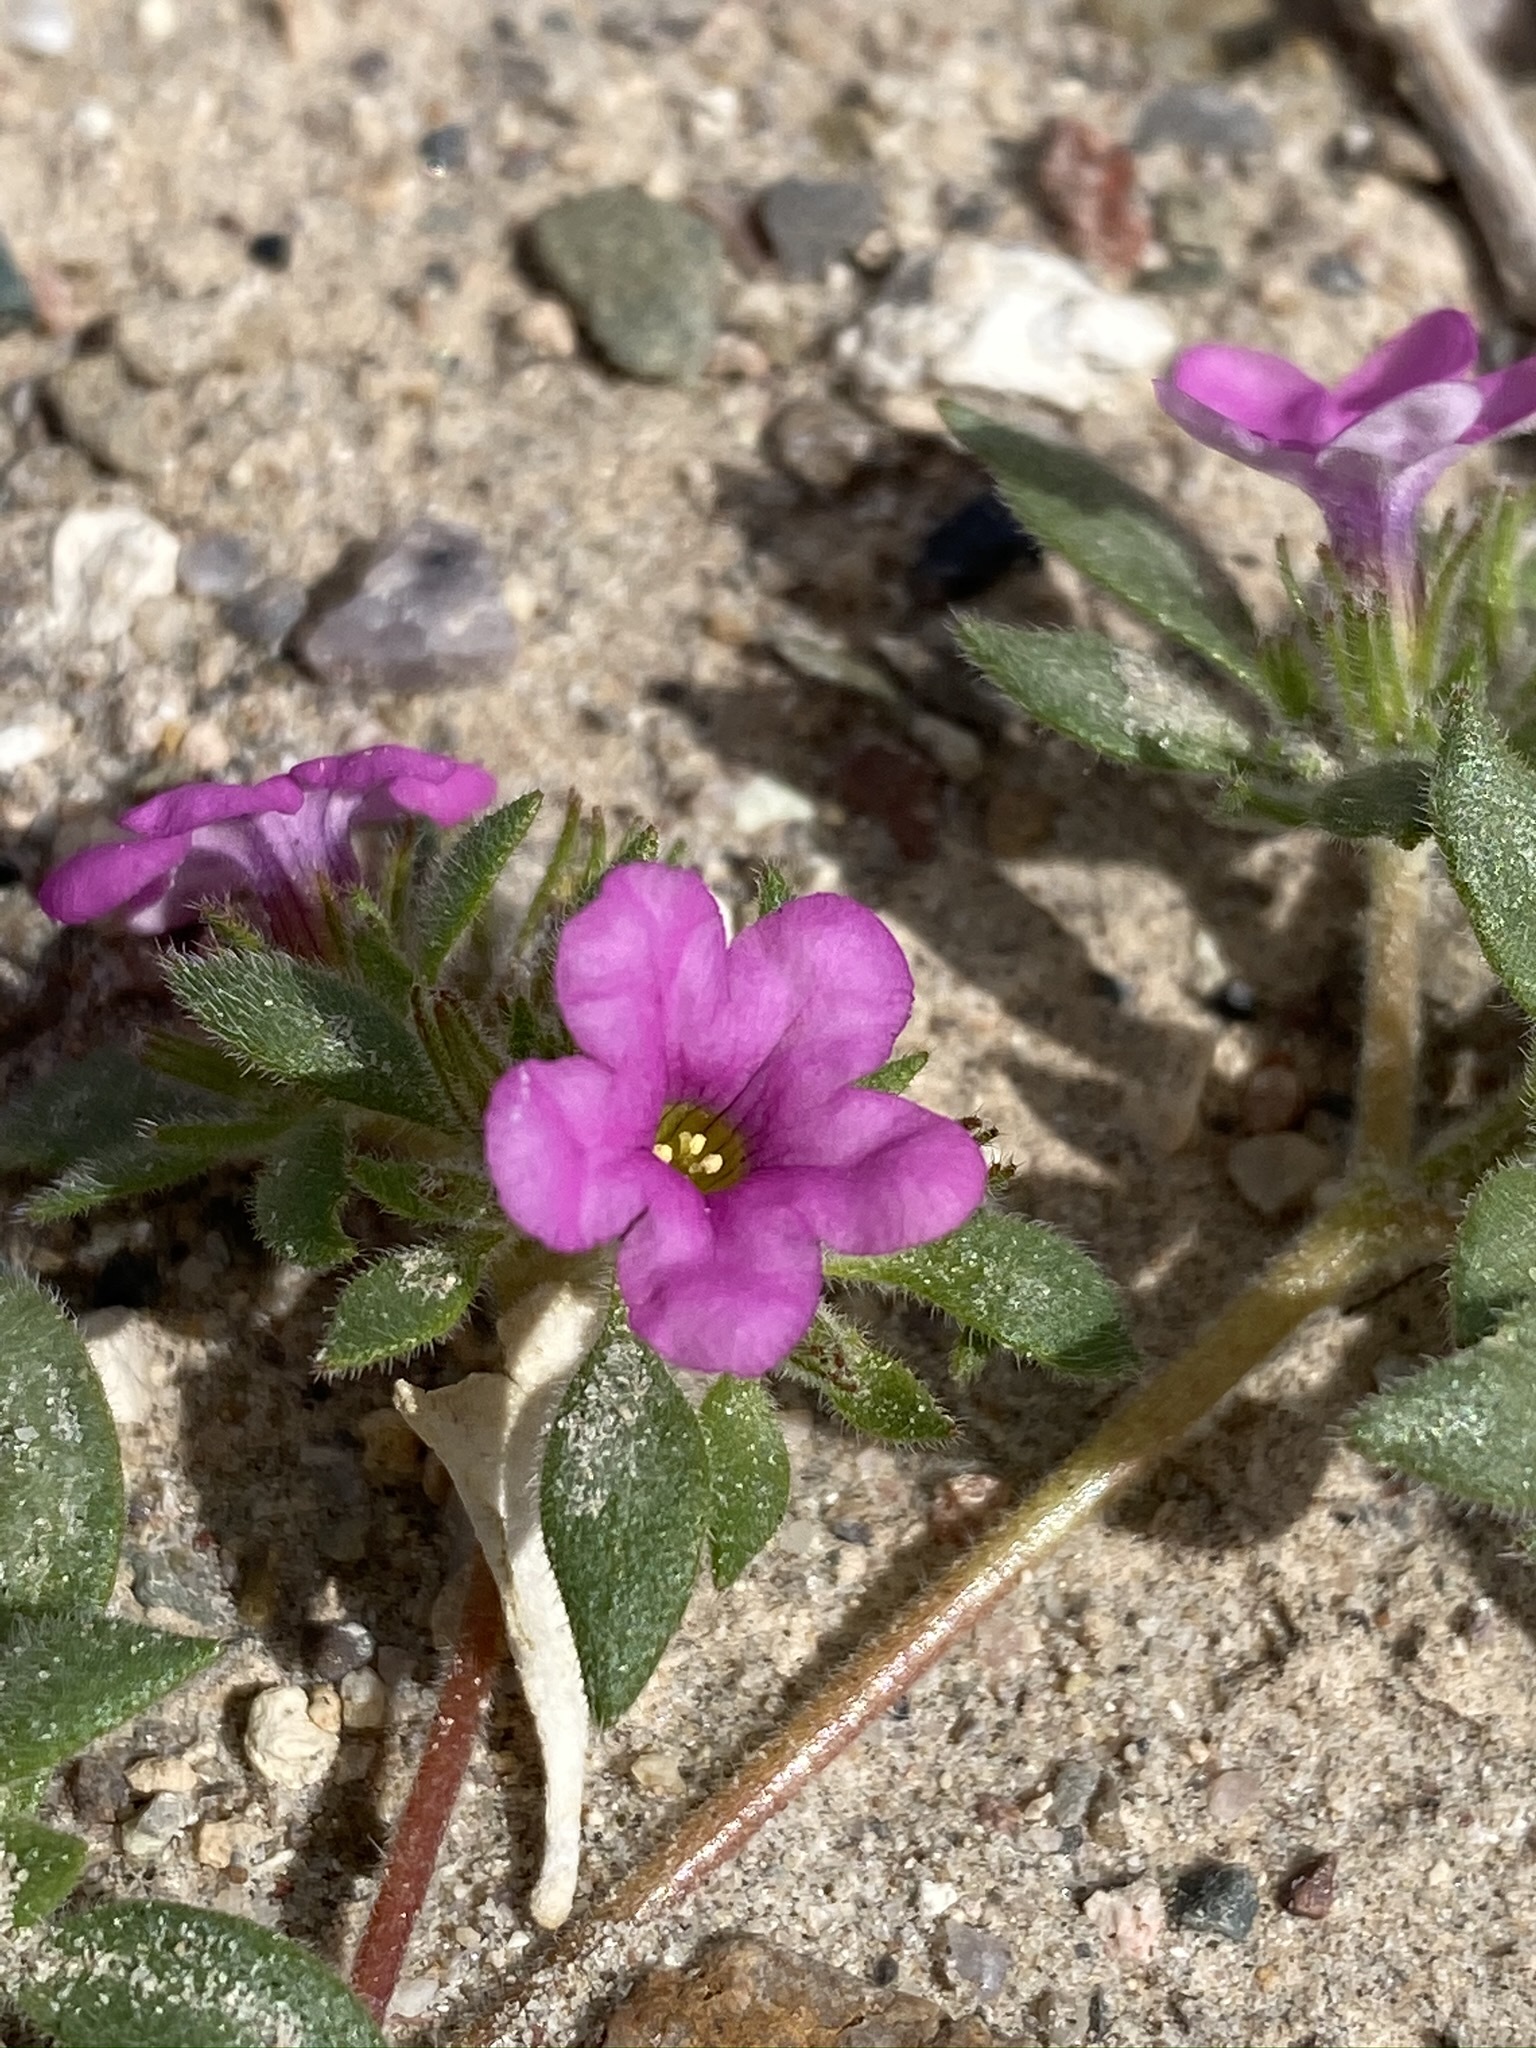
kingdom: Plantae
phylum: Tracheophyta
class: Magnoliopsida
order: Boraginales
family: Namaceae
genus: Nama
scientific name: Nama demissa
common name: Leafy nama
